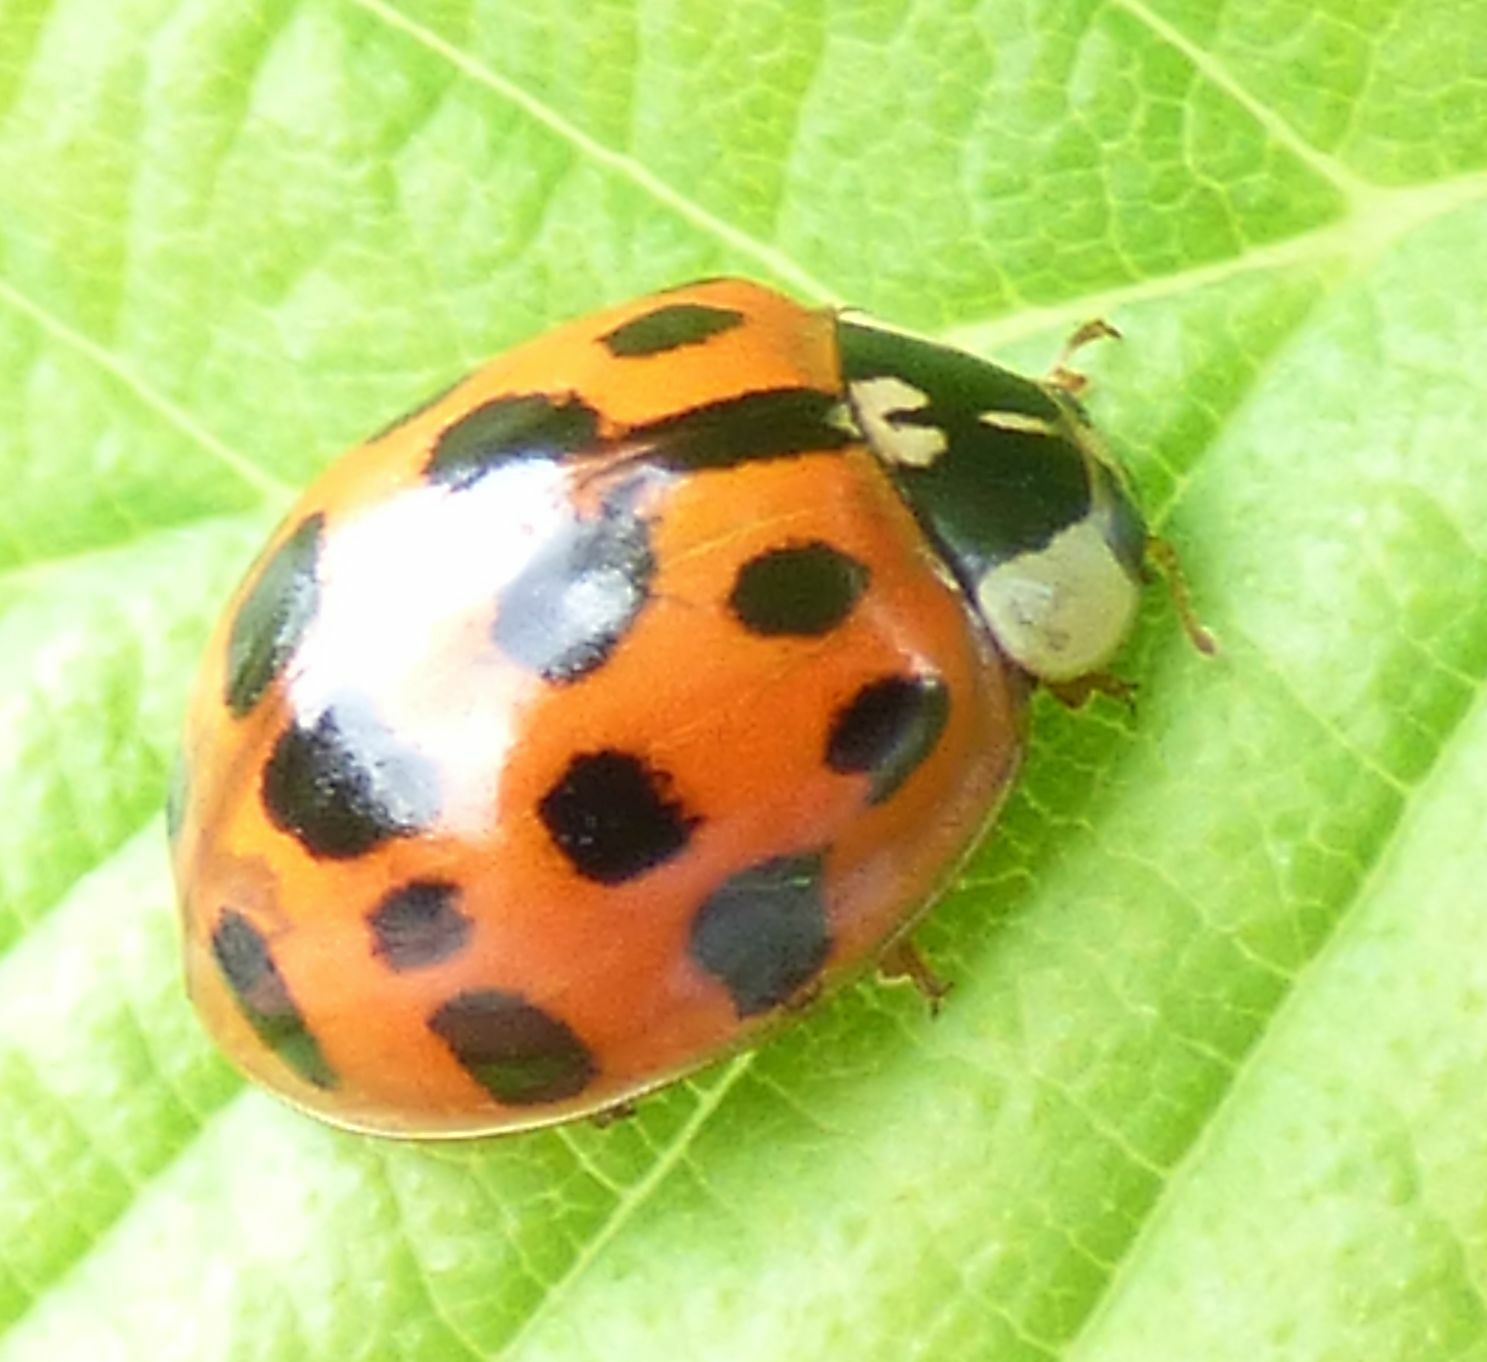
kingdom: Animalia
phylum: Arthropoda
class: Insecta
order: Coleoptera
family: Coccinellidae
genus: Harmonia
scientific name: Harmonia axyridis
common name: Harlequin ladybird
